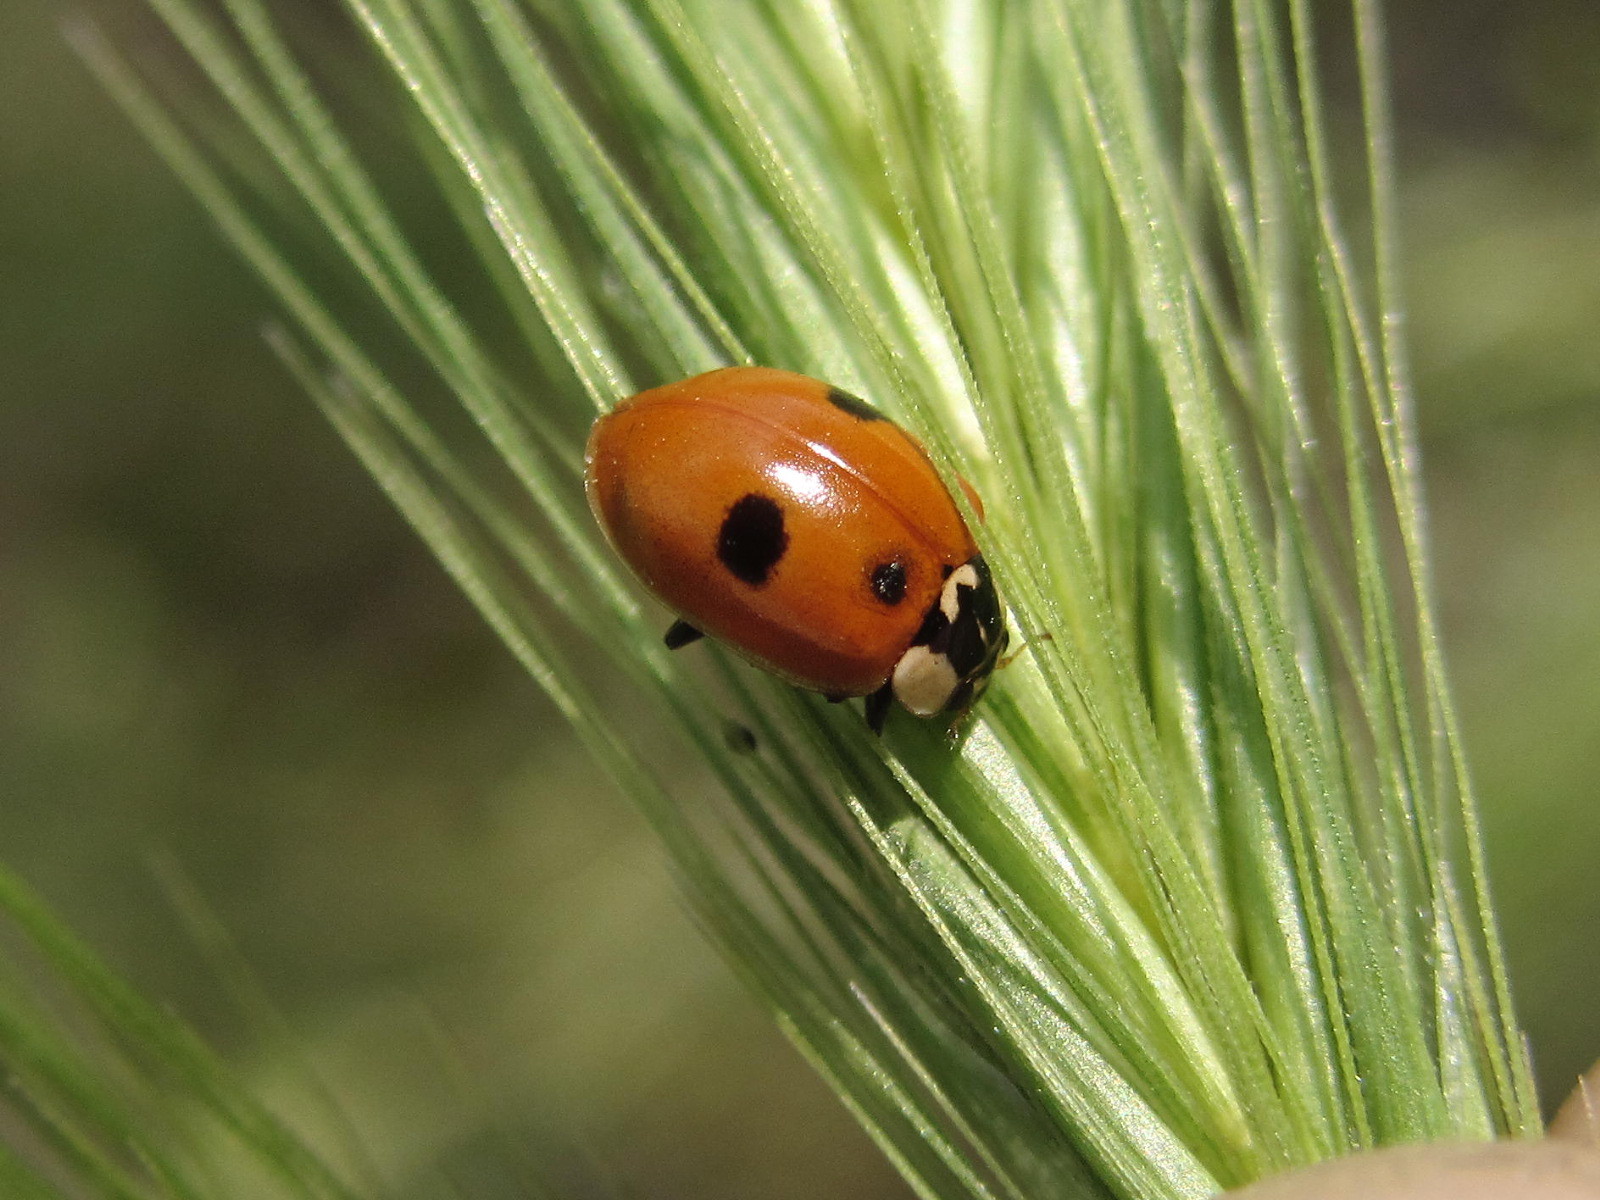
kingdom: Animalia
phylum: Arthropoda
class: Insecta
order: Coleoptera
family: Coccinellidae
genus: Adalia
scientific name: Adalia bipunctata
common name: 2-spot ladybird
